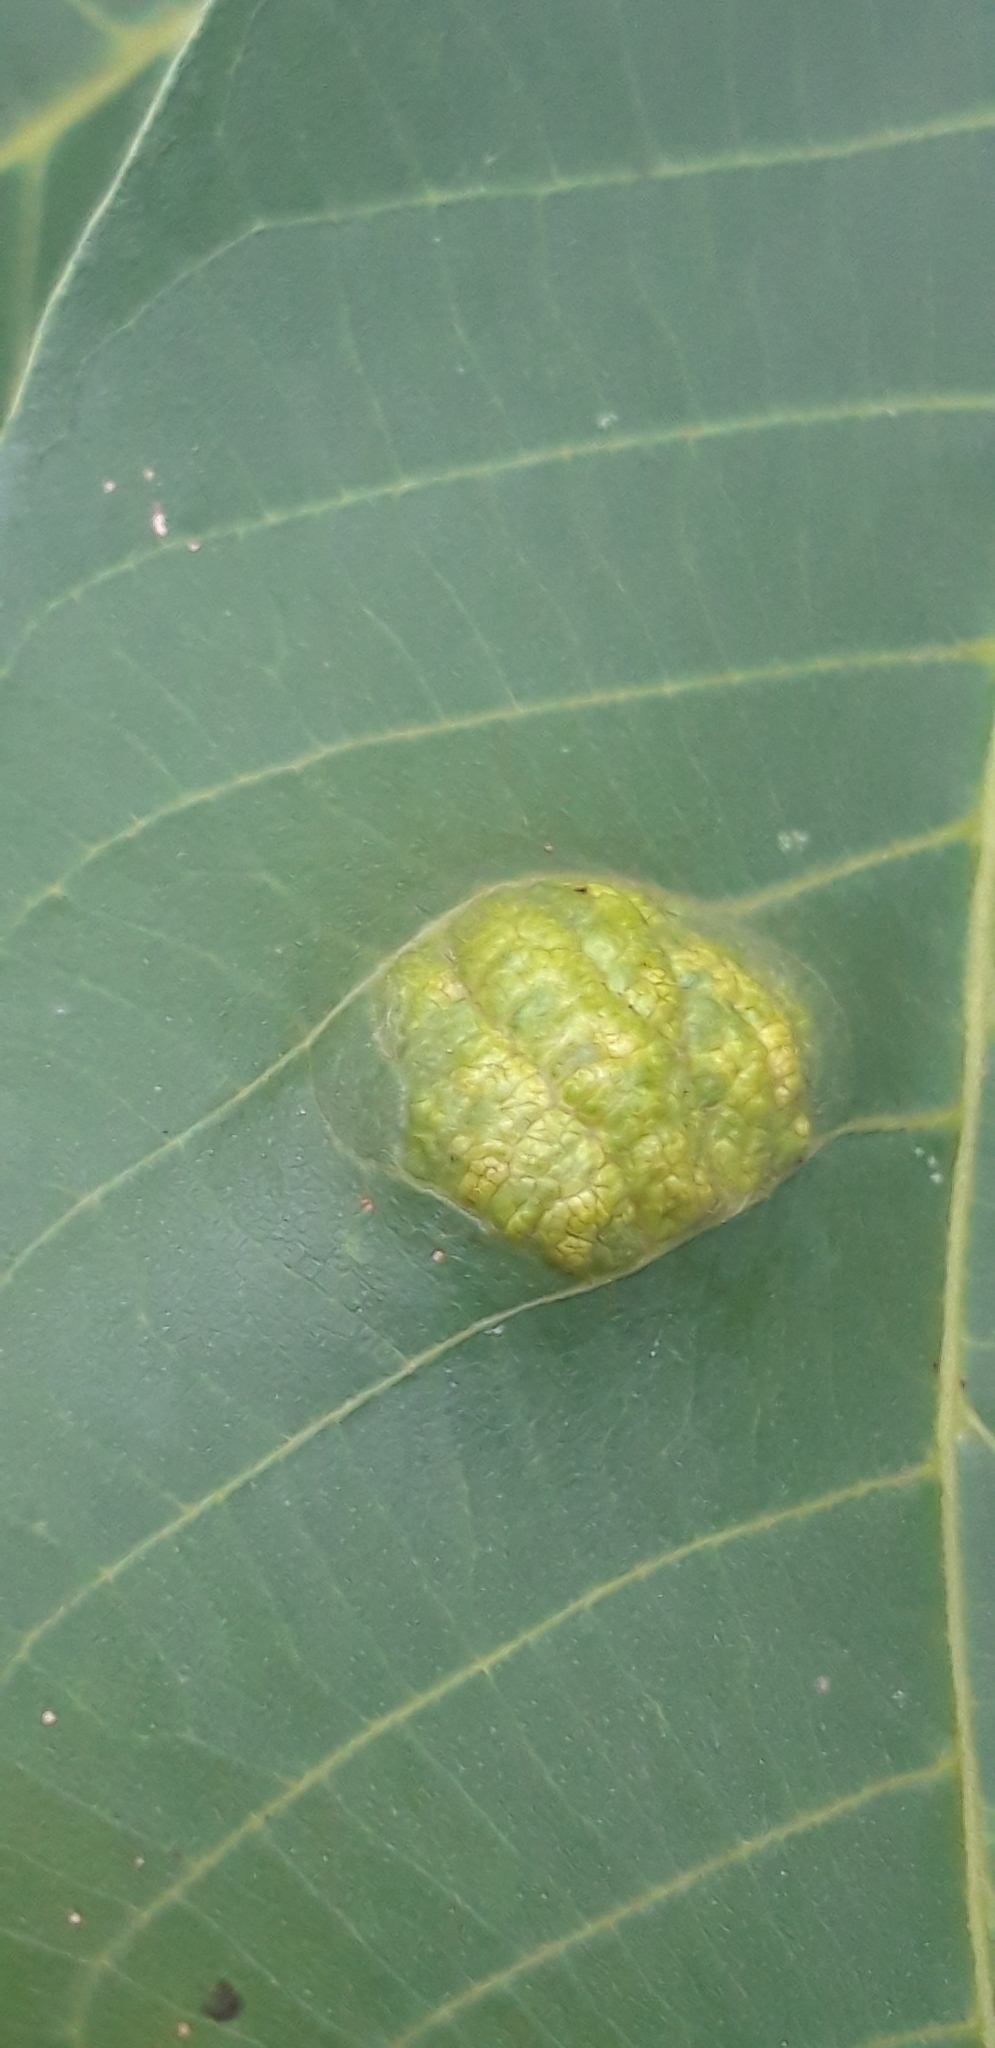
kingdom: Animalia
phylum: Arthropoda
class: Arachnida
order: Trombidiformes
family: Eriophyidae
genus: Aceria
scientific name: Aceria erinea
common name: Persian walnut erineum mite
